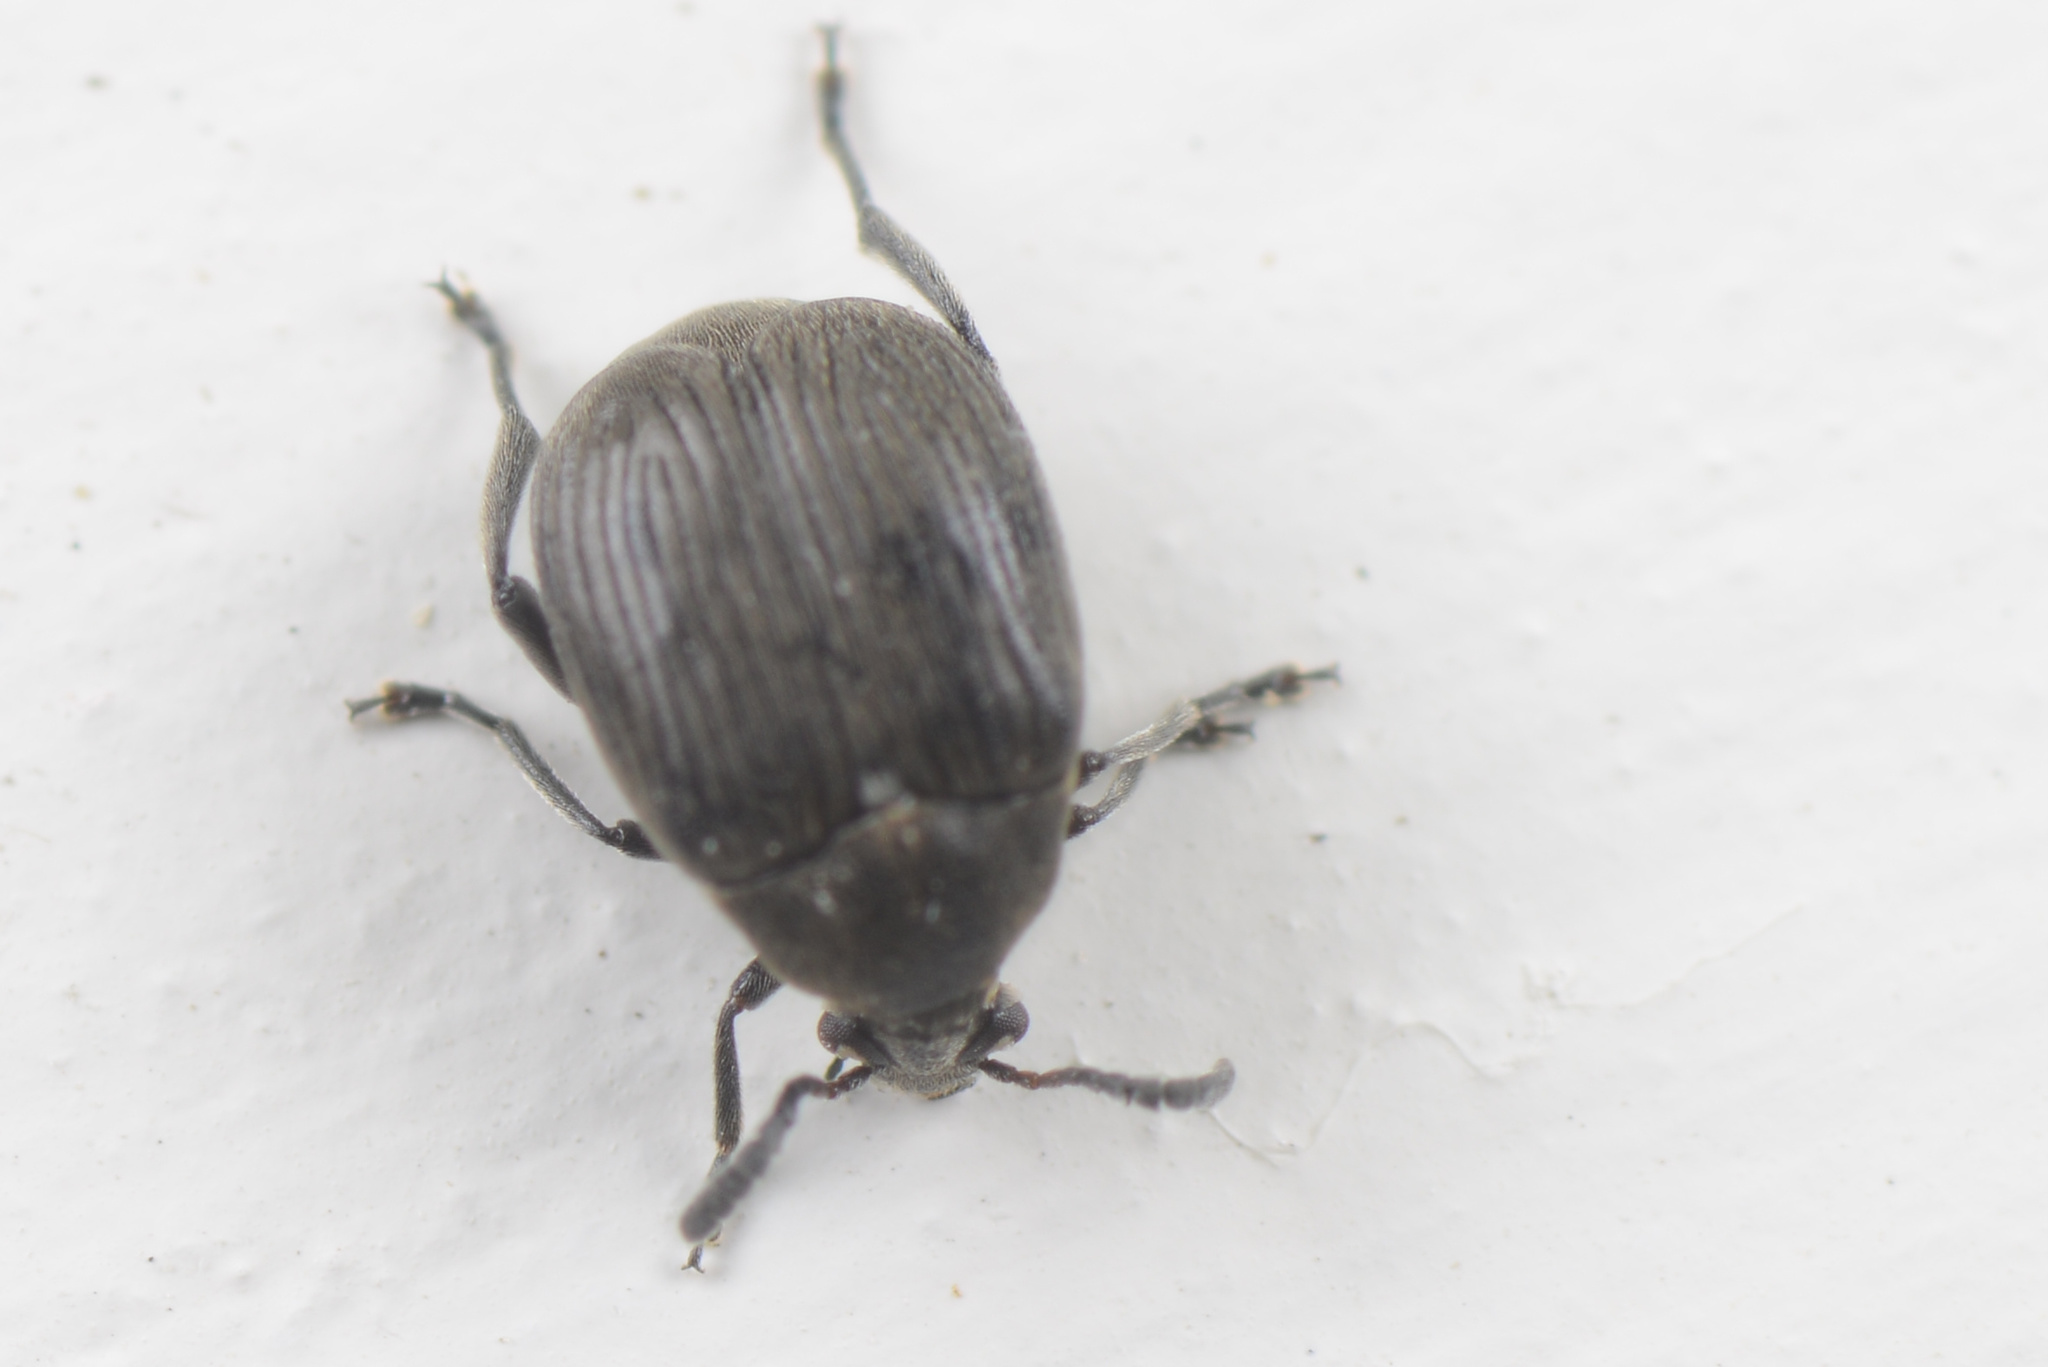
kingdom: Animalia
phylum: Arthropoda
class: Insecta
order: Coleoptera
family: Chrysomelidae
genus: Bruchidius
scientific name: Bruchidius villosus
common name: Scotch broom bruchid
